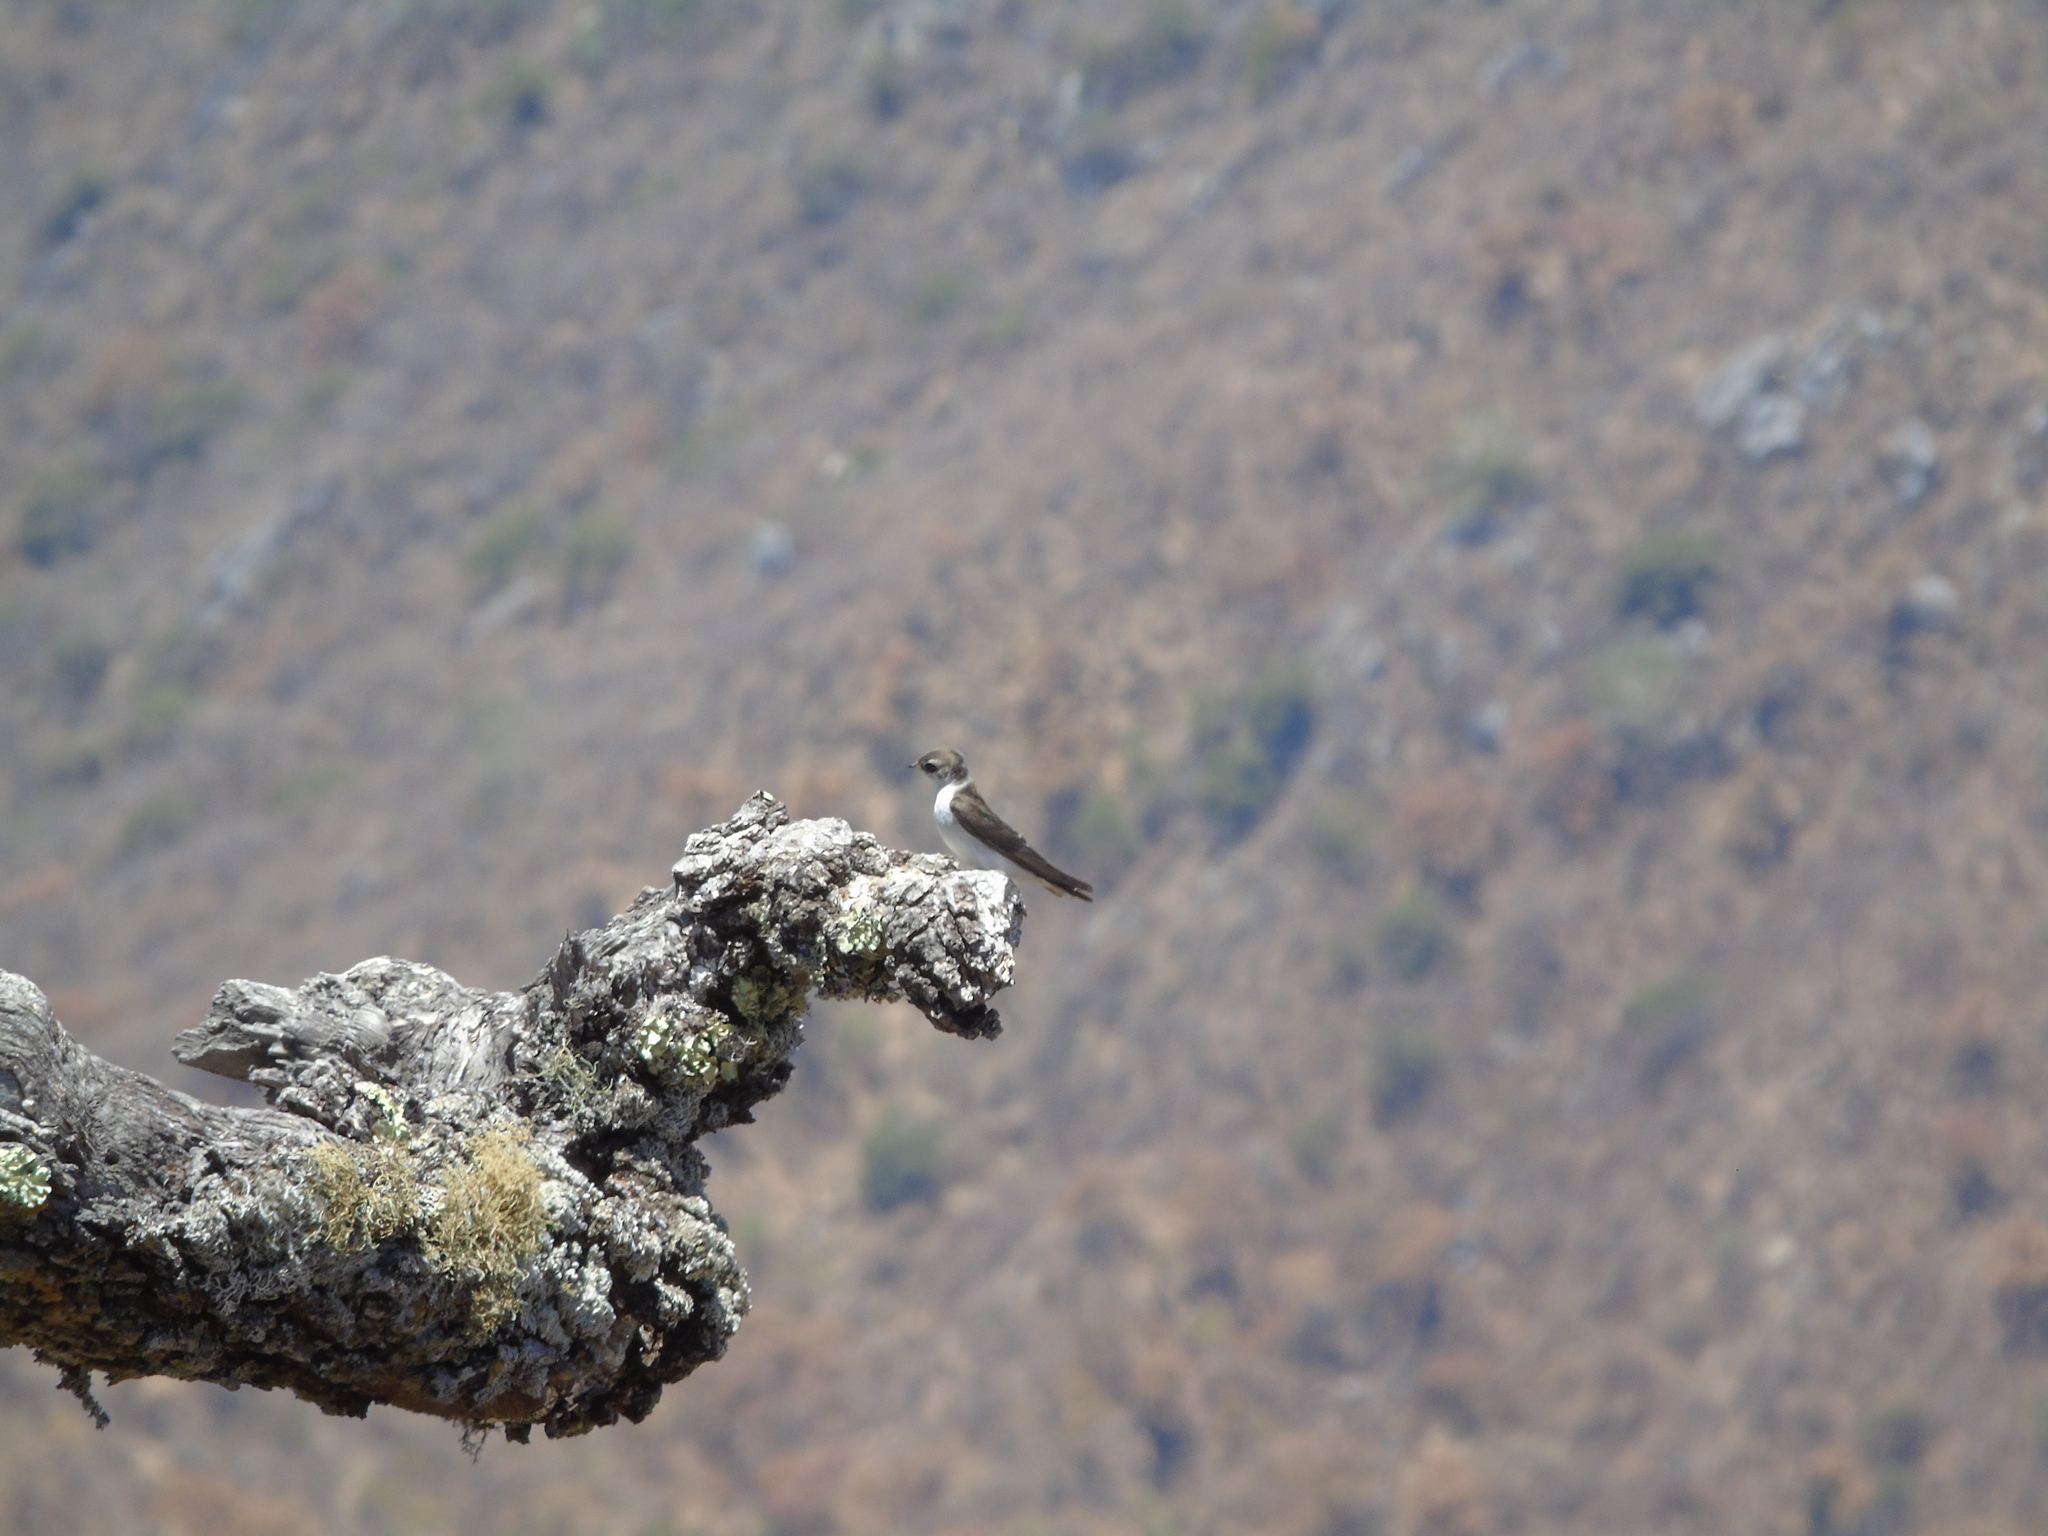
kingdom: Animalia
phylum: Chordata
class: Aves
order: Passeriformes
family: Hirundinidae
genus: Tachycineta
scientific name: Tachycineta thalassina
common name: Violet-green swallow
